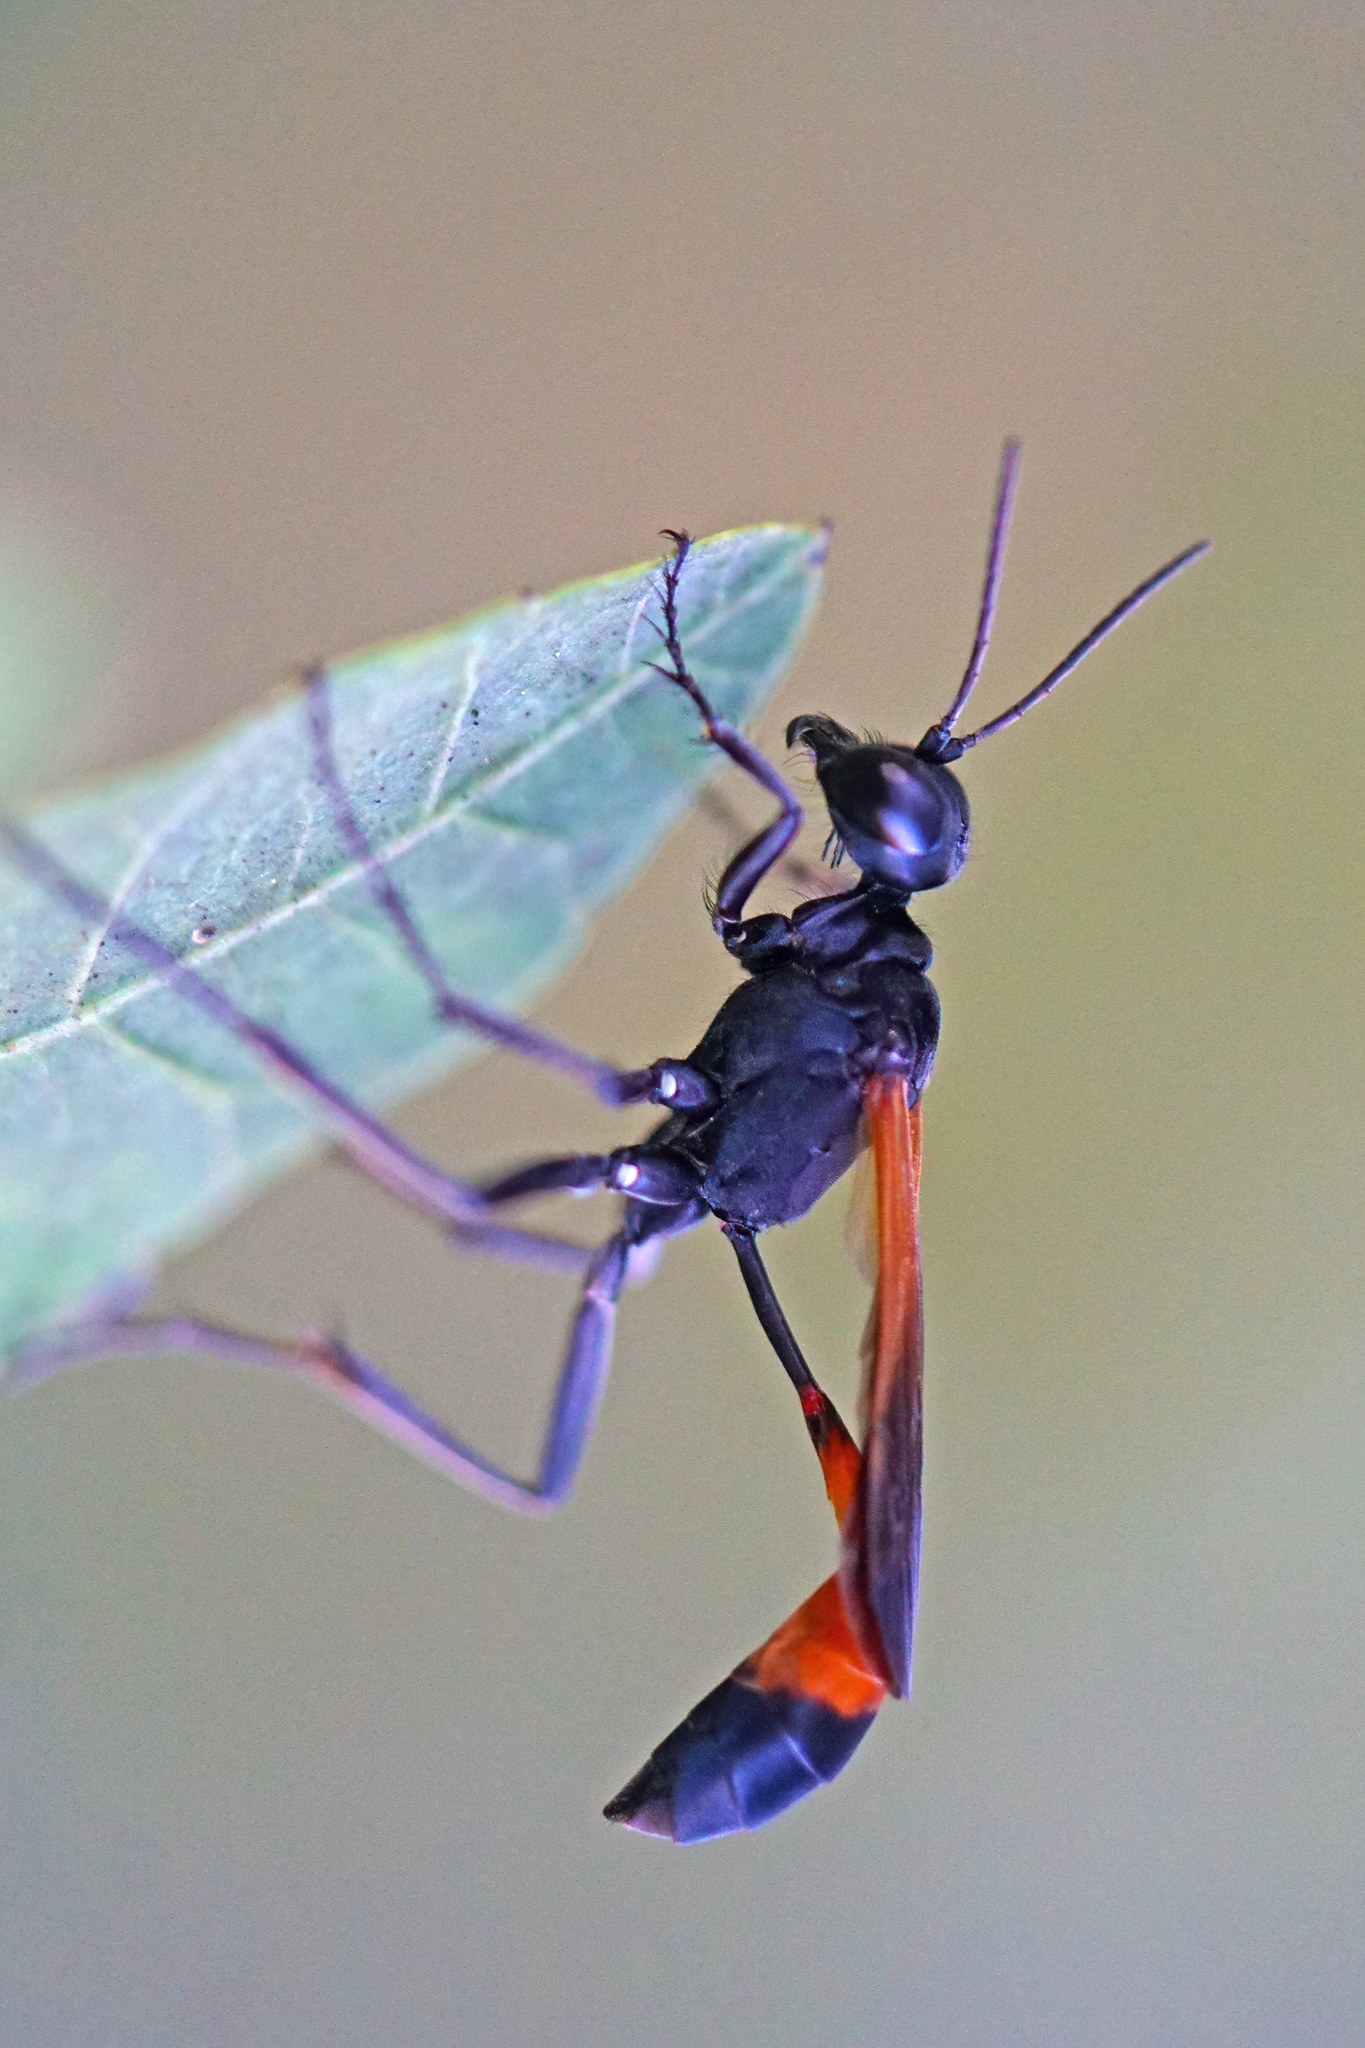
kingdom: Animalia
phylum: Arthropoda
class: Insecta
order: Hymenoptera
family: Sphecidae
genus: Ammophila
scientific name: Ammophila pictipennis
